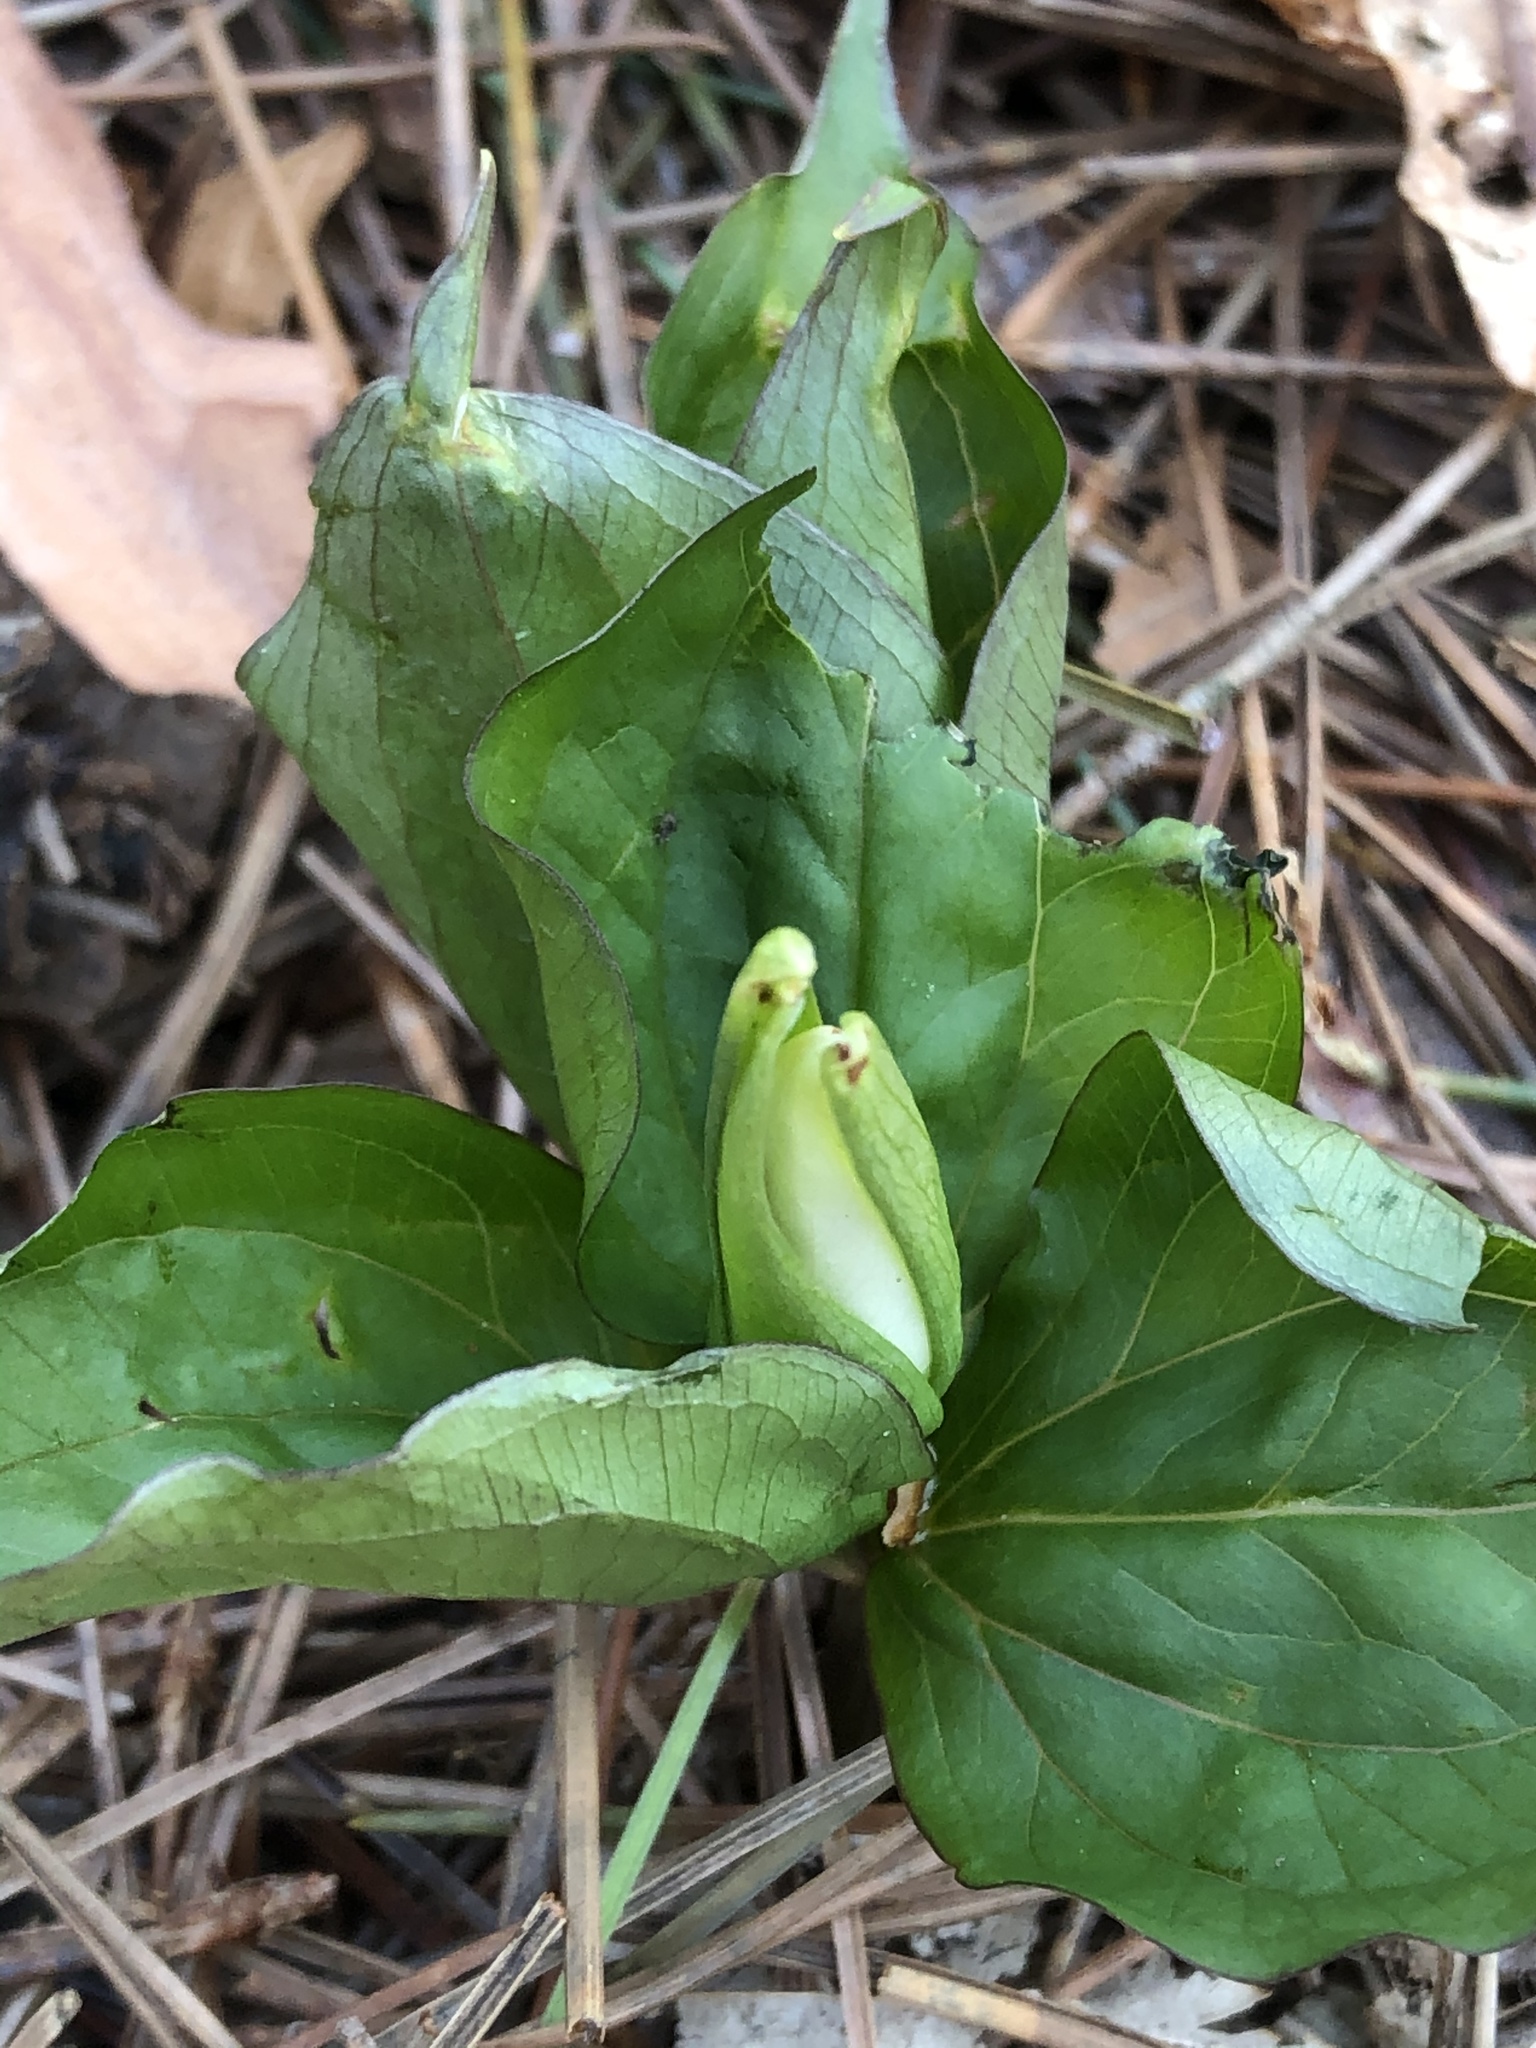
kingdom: Plantae
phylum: Tracheophyta
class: Liliopsida
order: Liliales
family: Melanthiaceae
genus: Trillium
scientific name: Trillium grandiflorum
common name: Great white trillium
